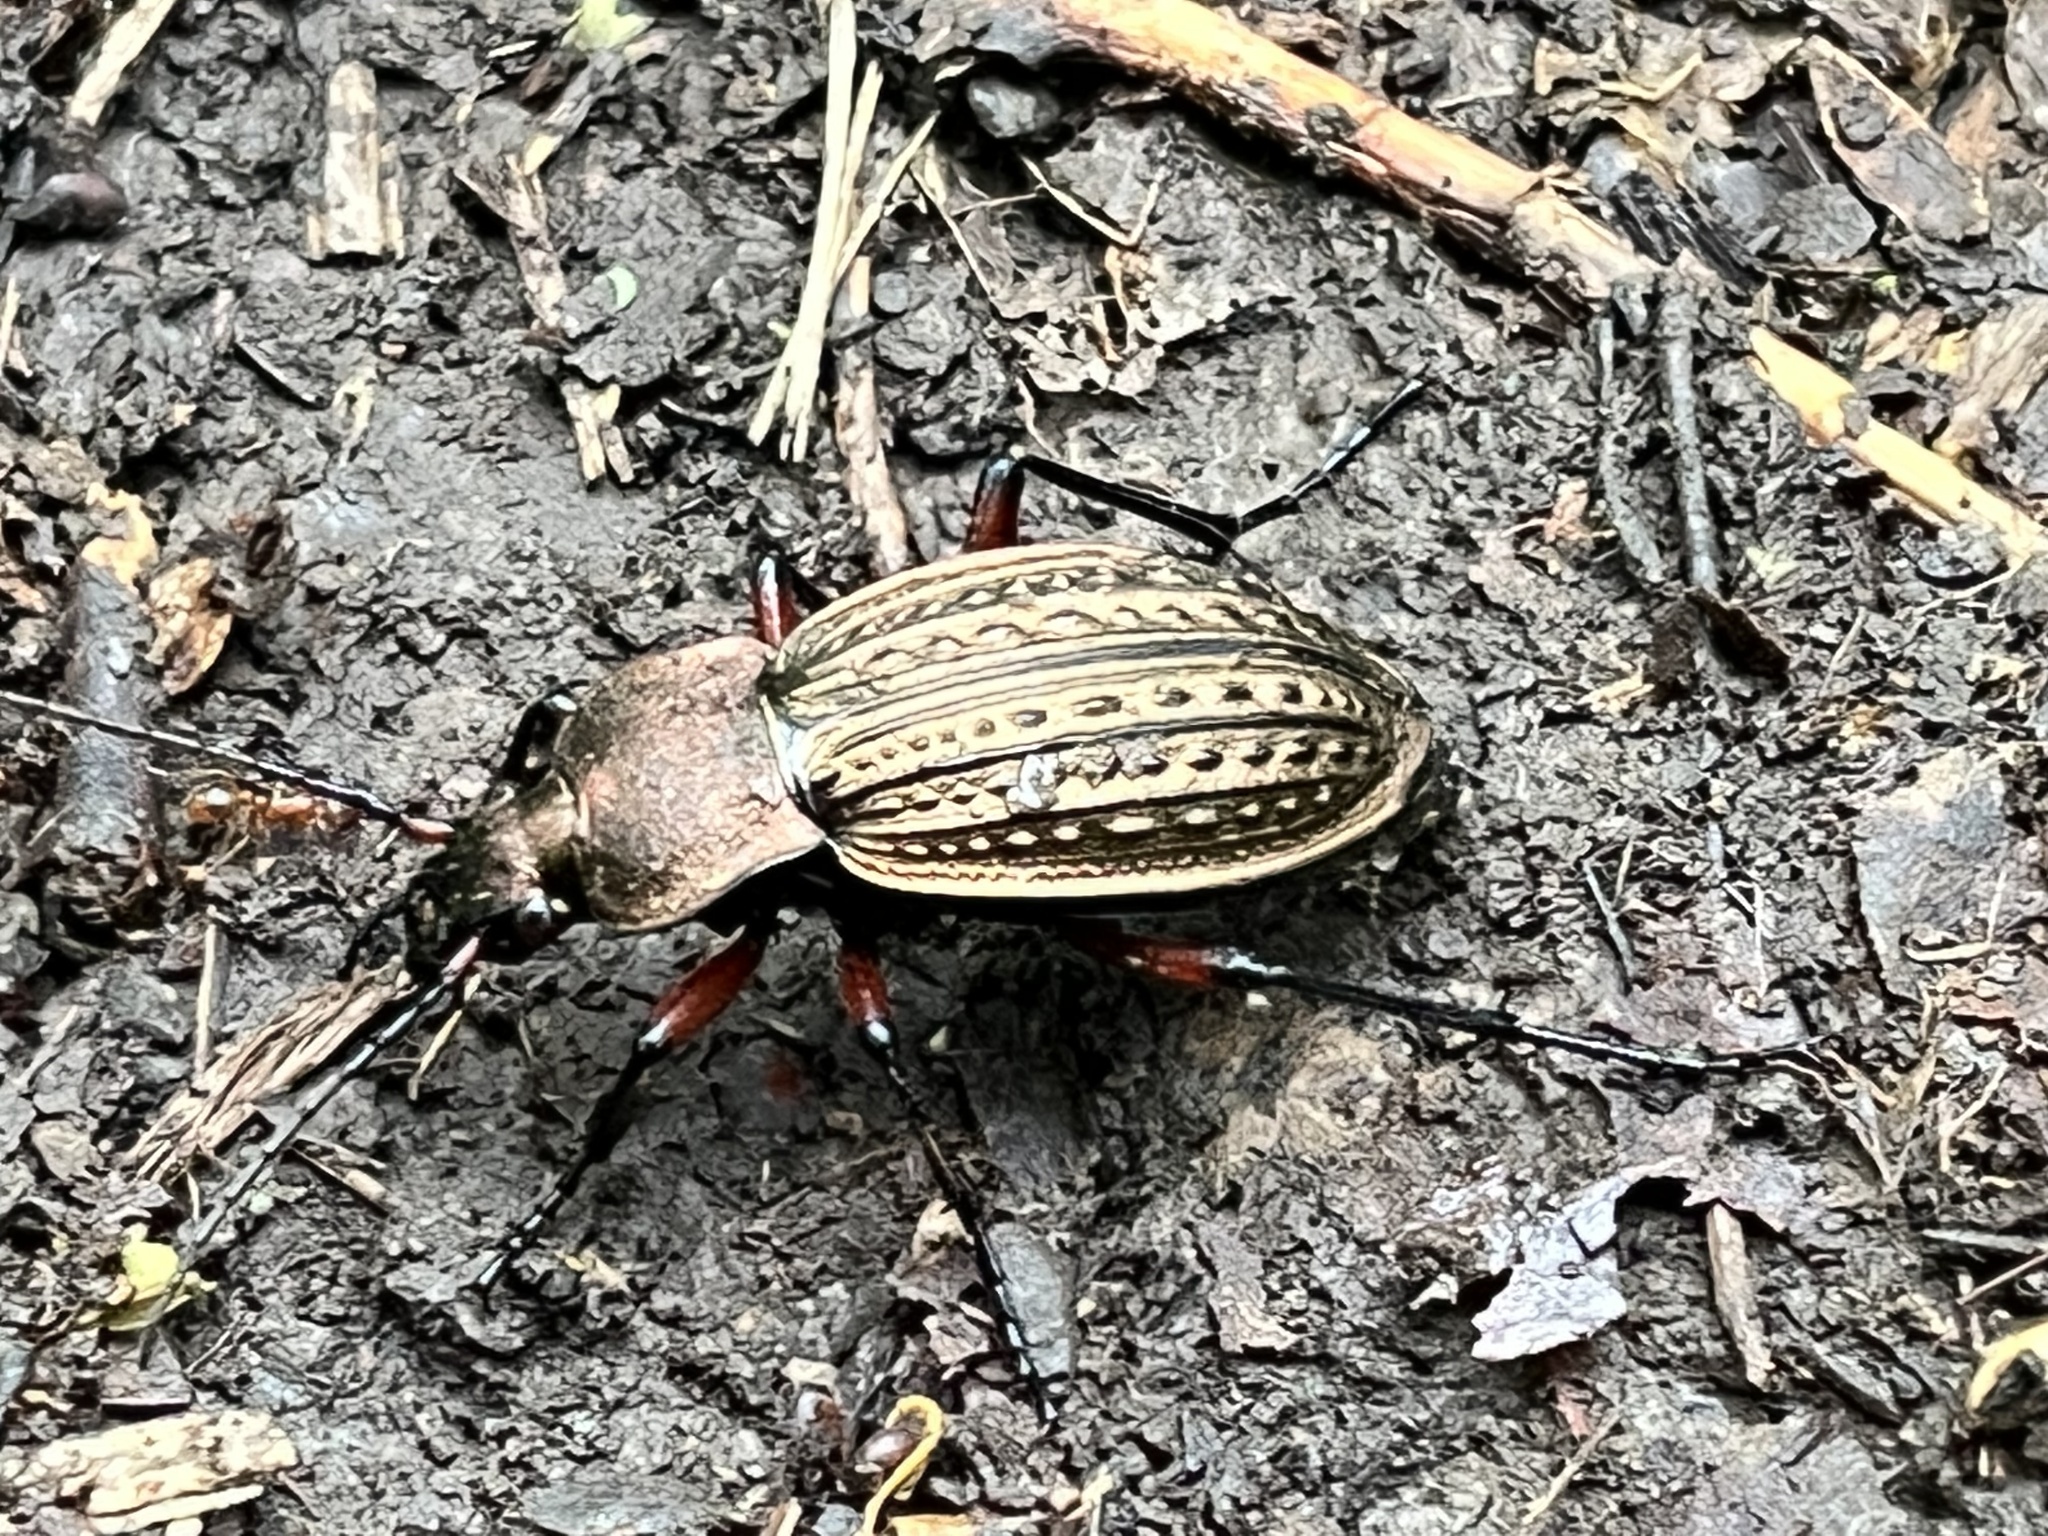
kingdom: Animalia
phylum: Arthropoda
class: Insecta
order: Coleoptera
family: Carabidae
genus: Carabus
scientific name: Carabus cancellatus
